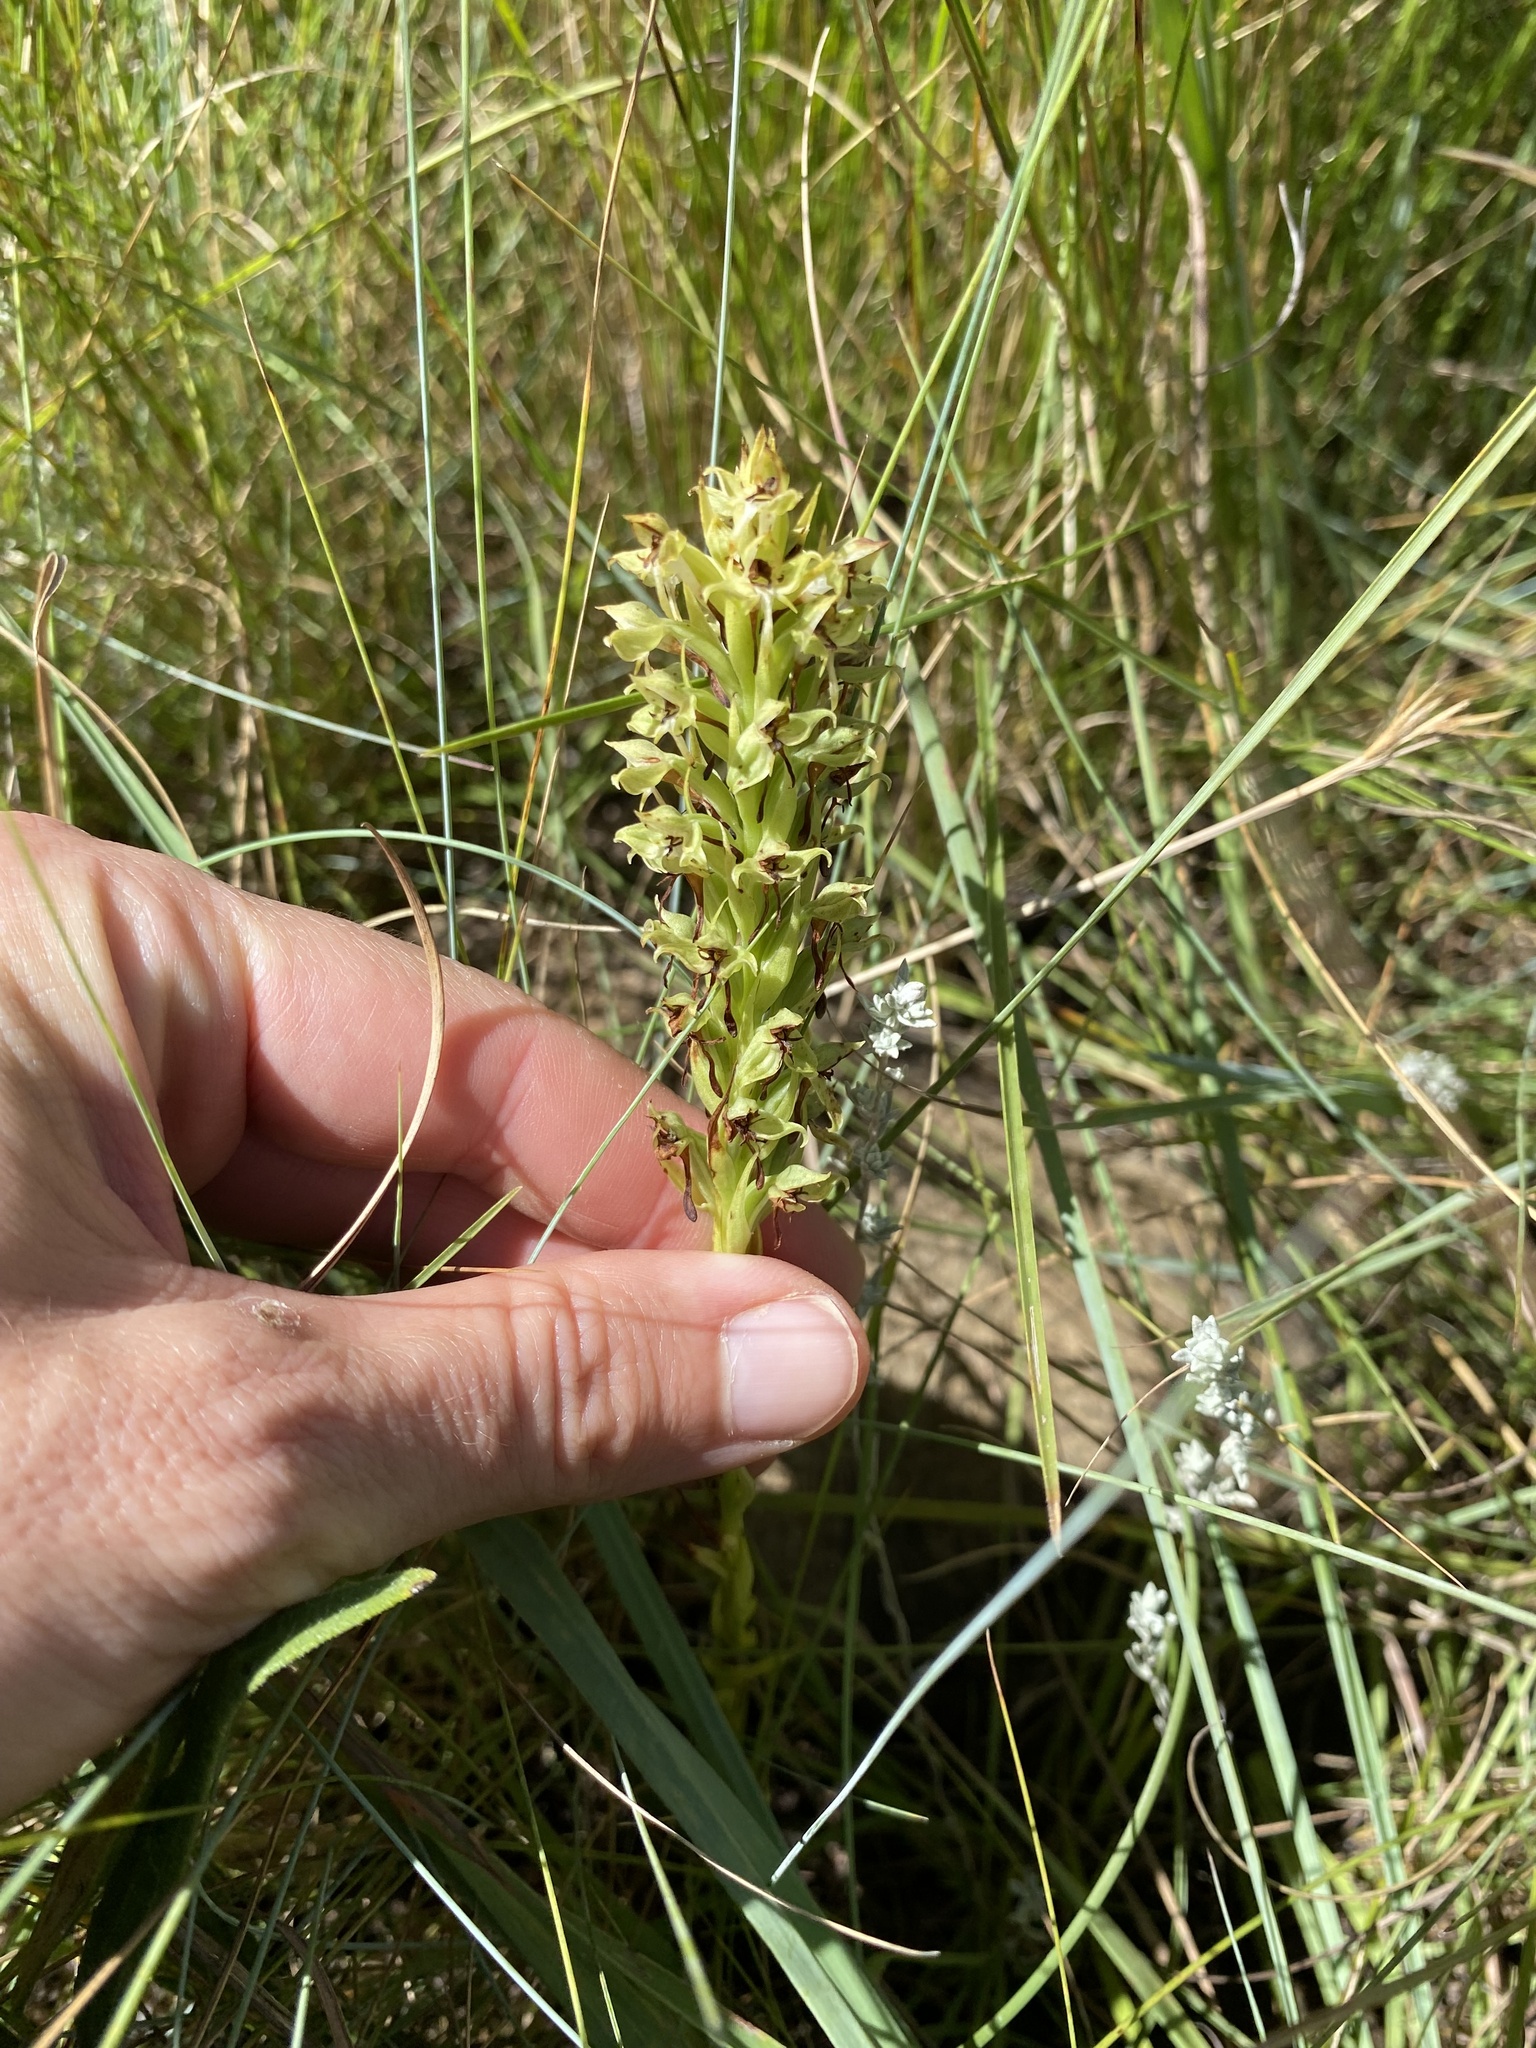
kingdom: Plantae
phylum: Tracheophyta
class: Liliopsida
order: Asparagales
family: Orchidaceae
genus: Habenaria
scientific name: Habenaria dregeana
